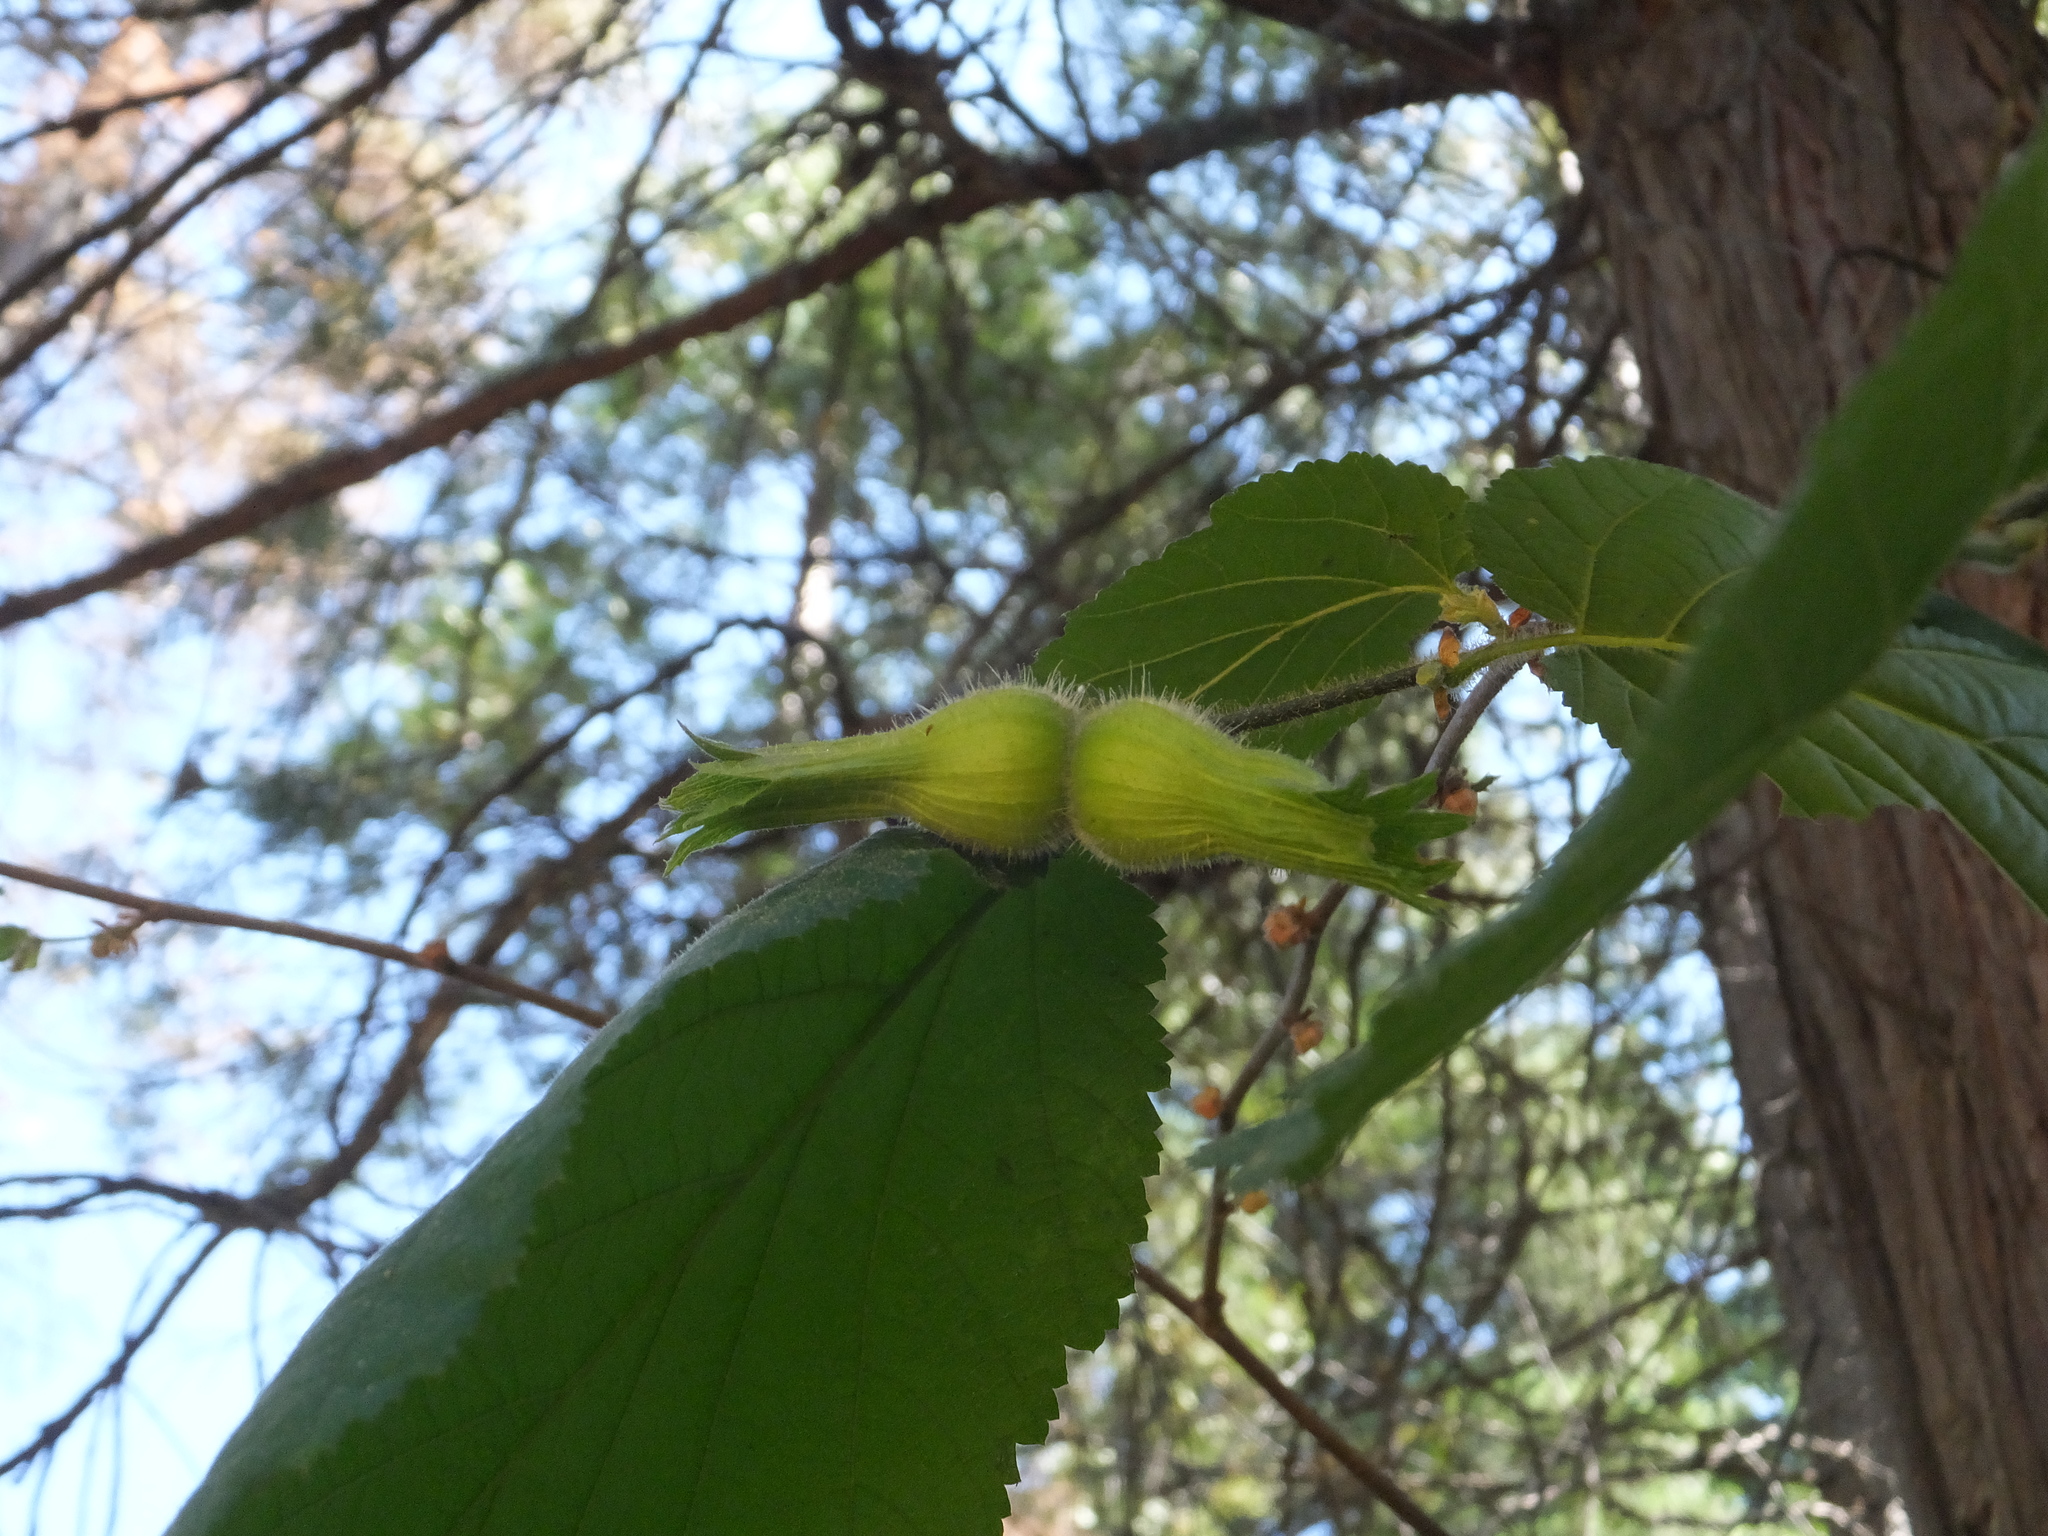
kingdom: Plantae
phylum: Tracheophyta
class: Magnoliopsida
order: Fagales
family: Betulaceae
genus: Corylus
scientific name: Corylus cornuta
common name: Beaked hazel
